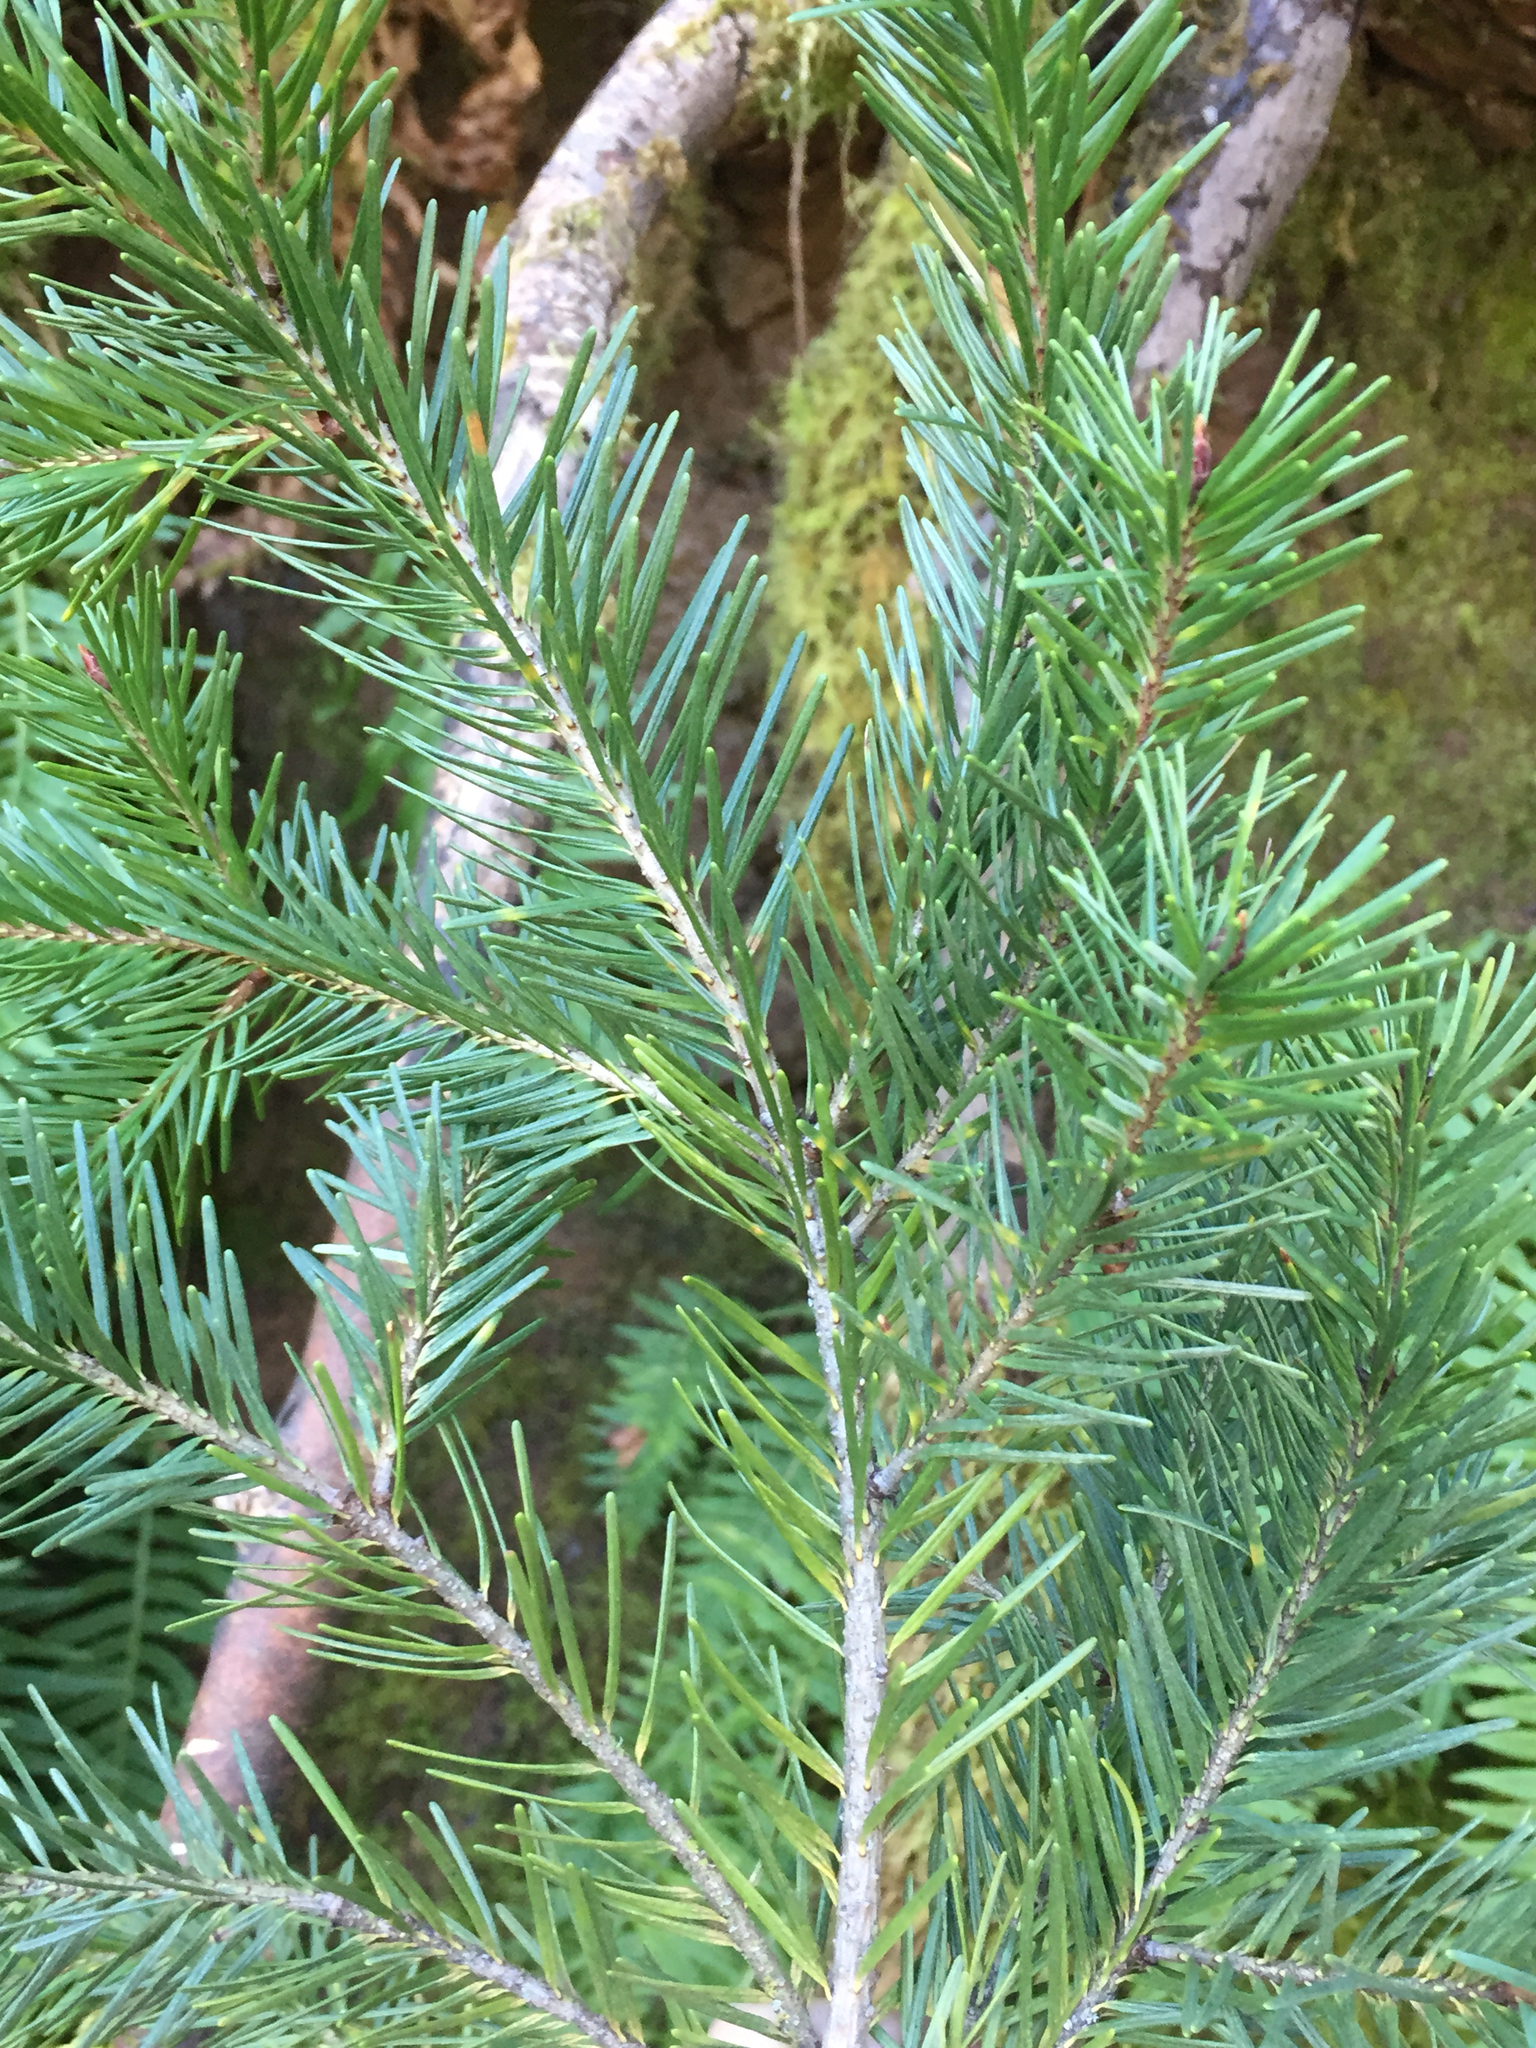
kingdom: Plantae
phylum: Tracheophyta
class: Pinopsida
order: Pinales
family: Pinaceae
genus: Pseudotsuga
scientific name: Pseudotsuga menziesii
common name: Douglas fir
